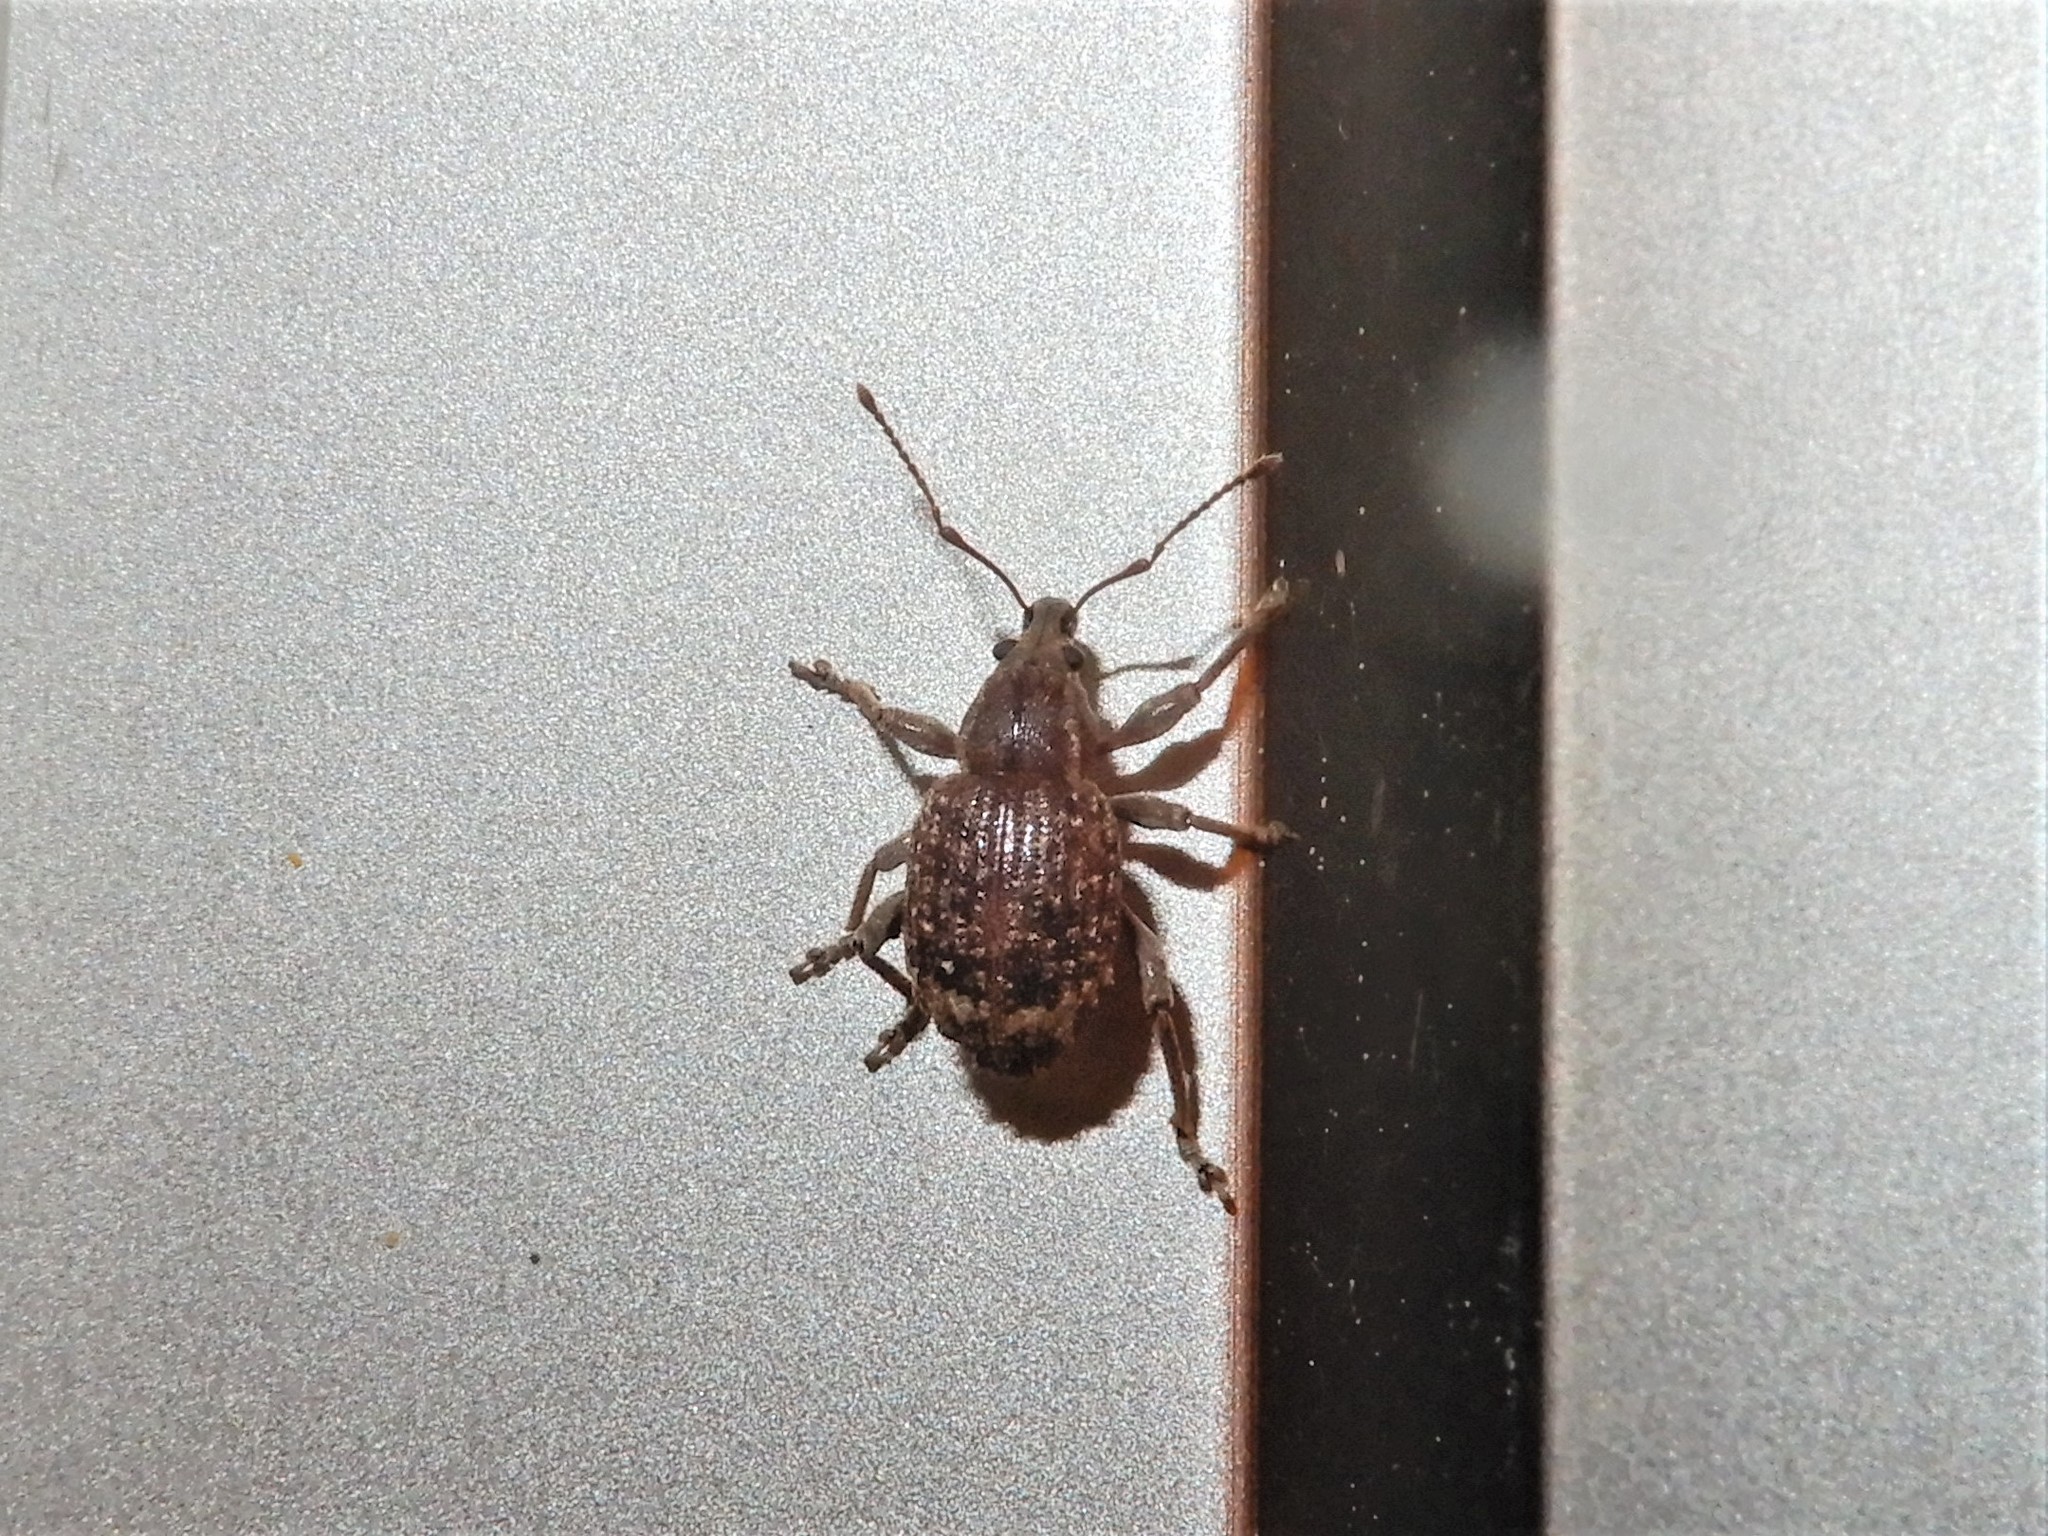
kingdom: Animalia
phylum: Arthropoda
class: Insecta
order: Coleoptera
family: Curculionidae
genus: Phlyctinus
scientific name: Phlyctinus callosus
